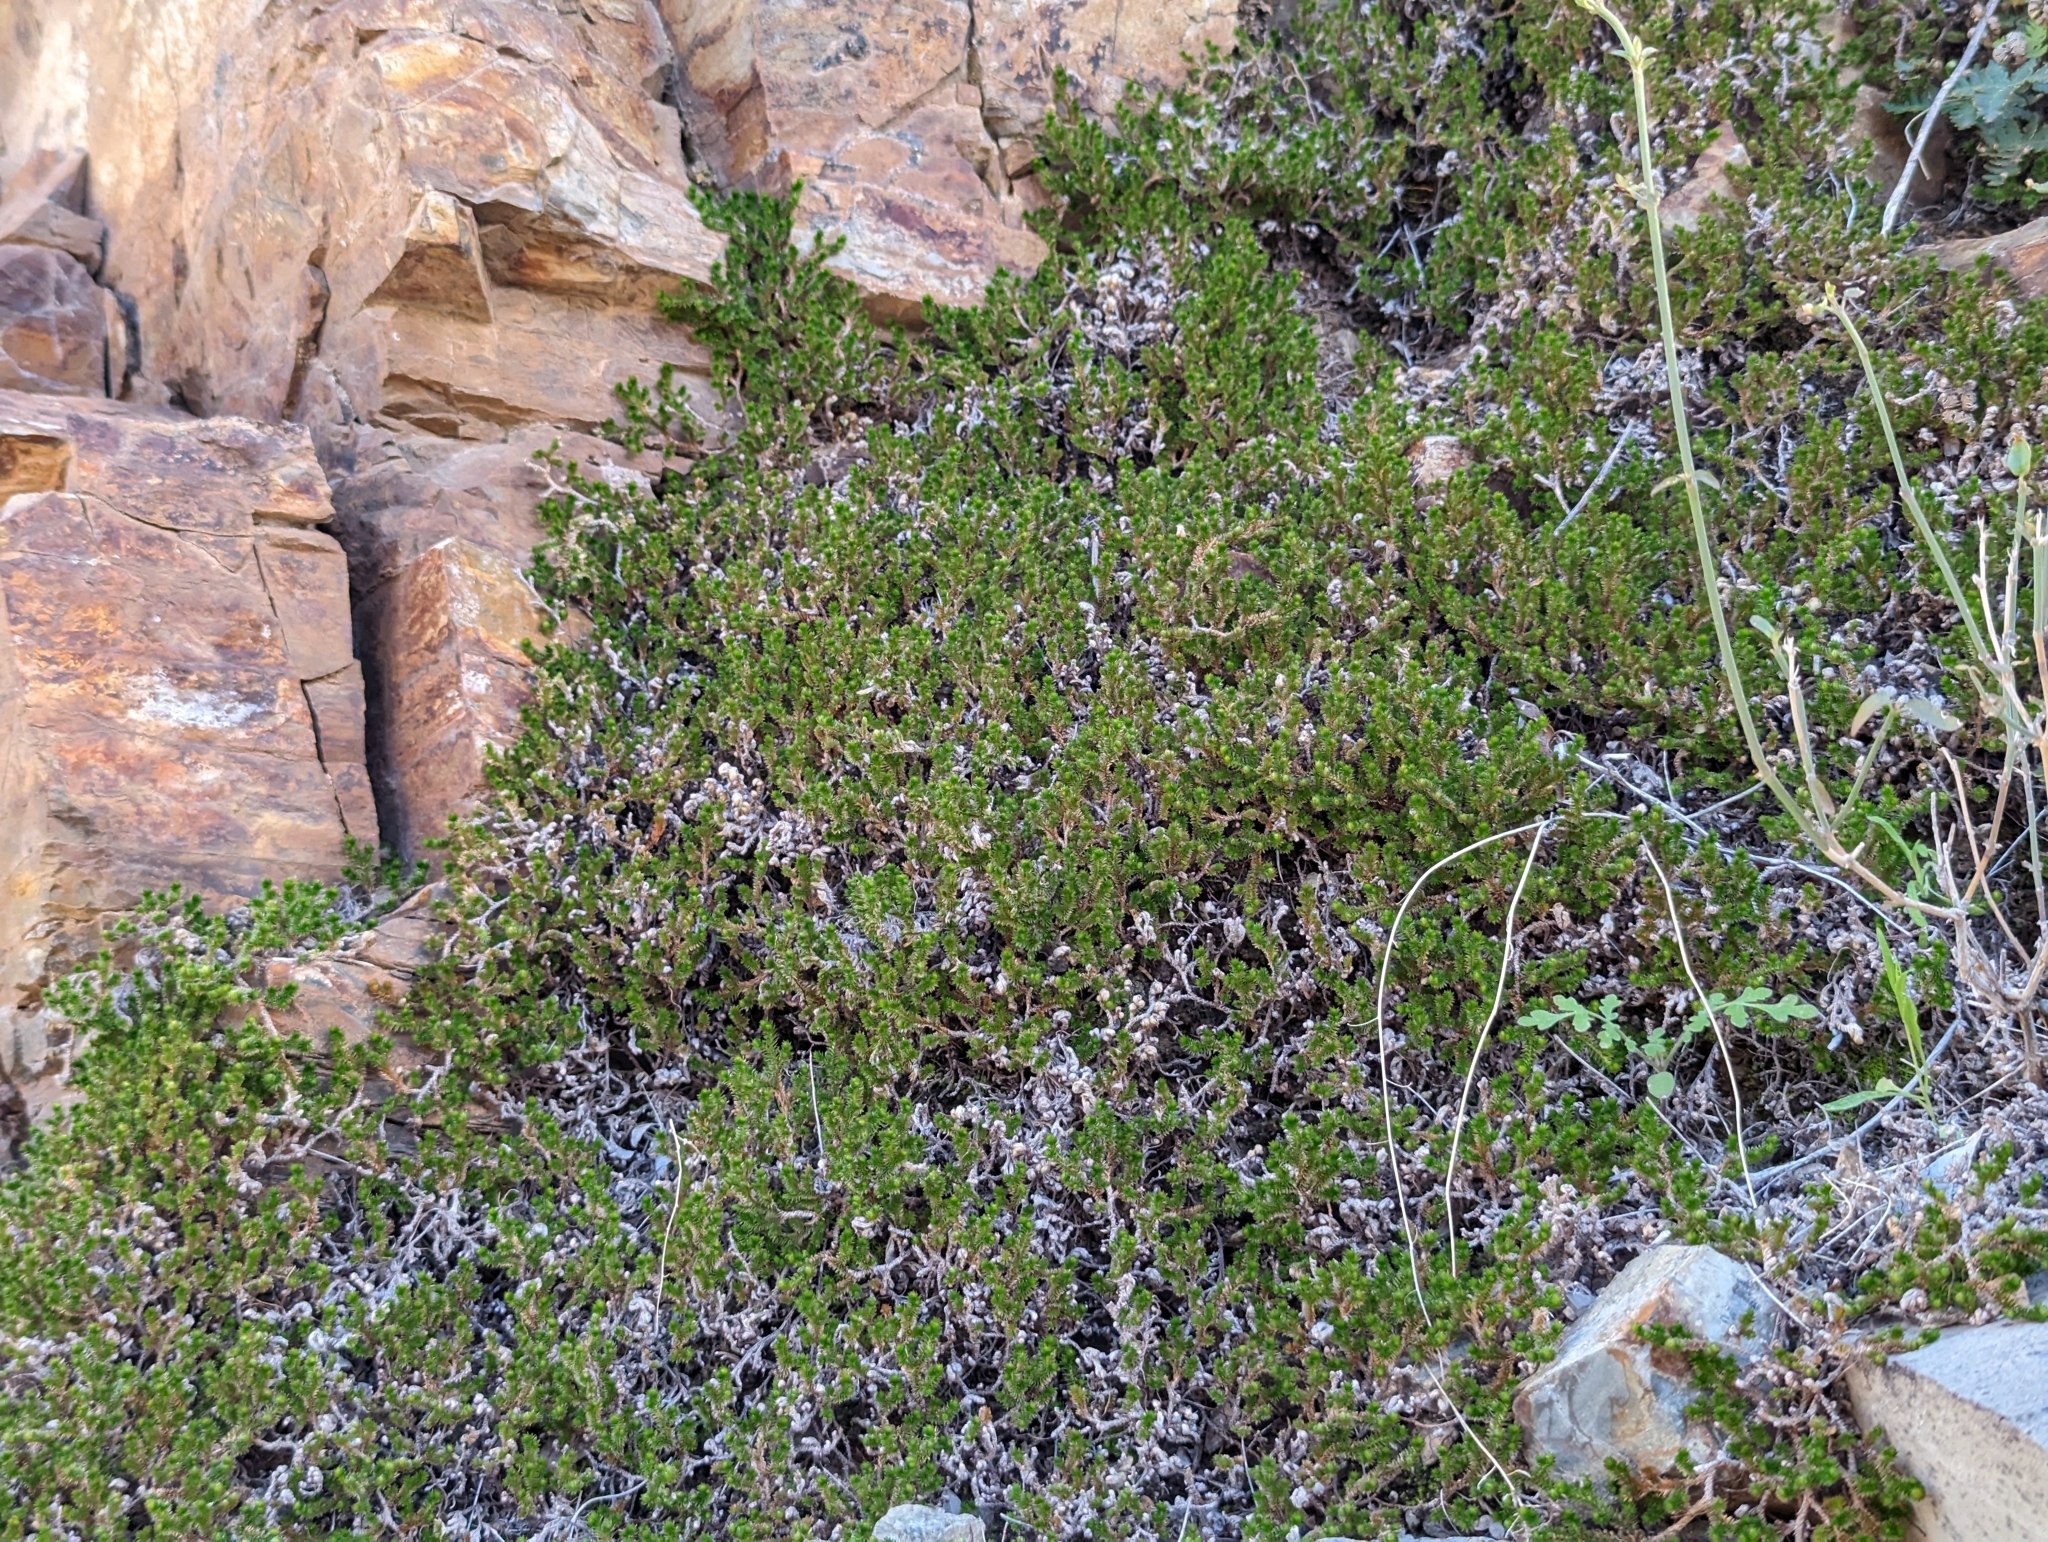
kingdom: Plantae
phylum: Tracheophyta
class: Lycopodiopsida
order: Selaginellales
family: Selaginellaceae
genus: Selaginella
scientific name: Selaginella arizonica
